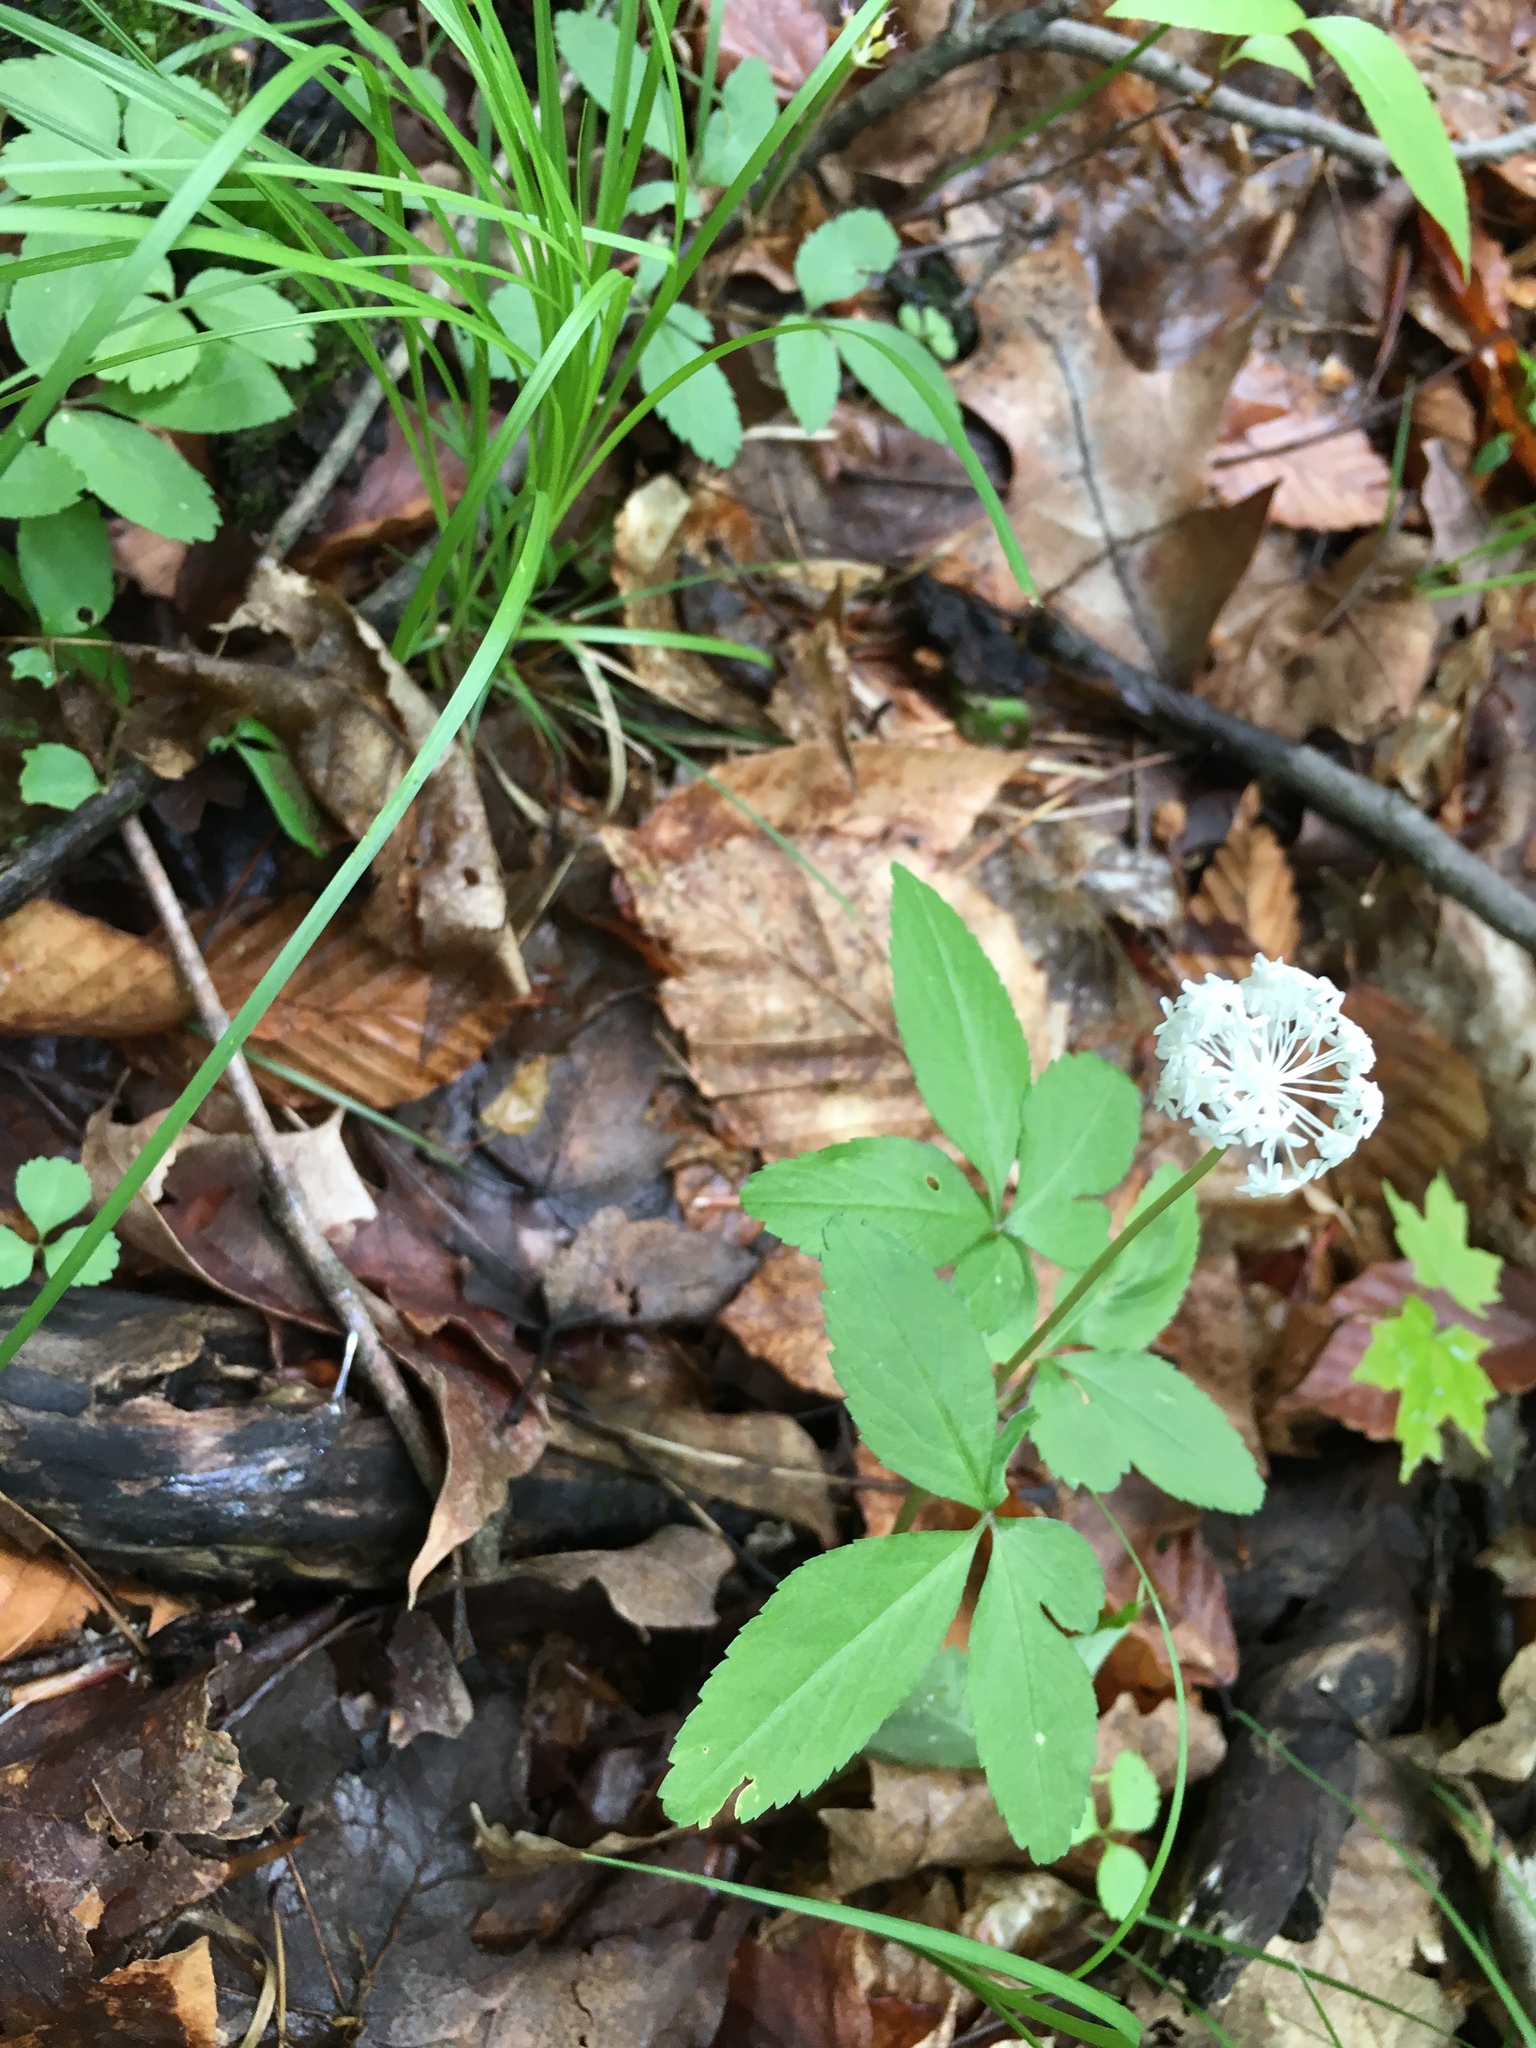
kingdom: Plantae
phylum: Tracheophyta
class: Magnoliopsida
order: Apiales
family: Araliaceae
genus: Panax
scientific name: Panax trifolius
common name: Dwarf ginseng
